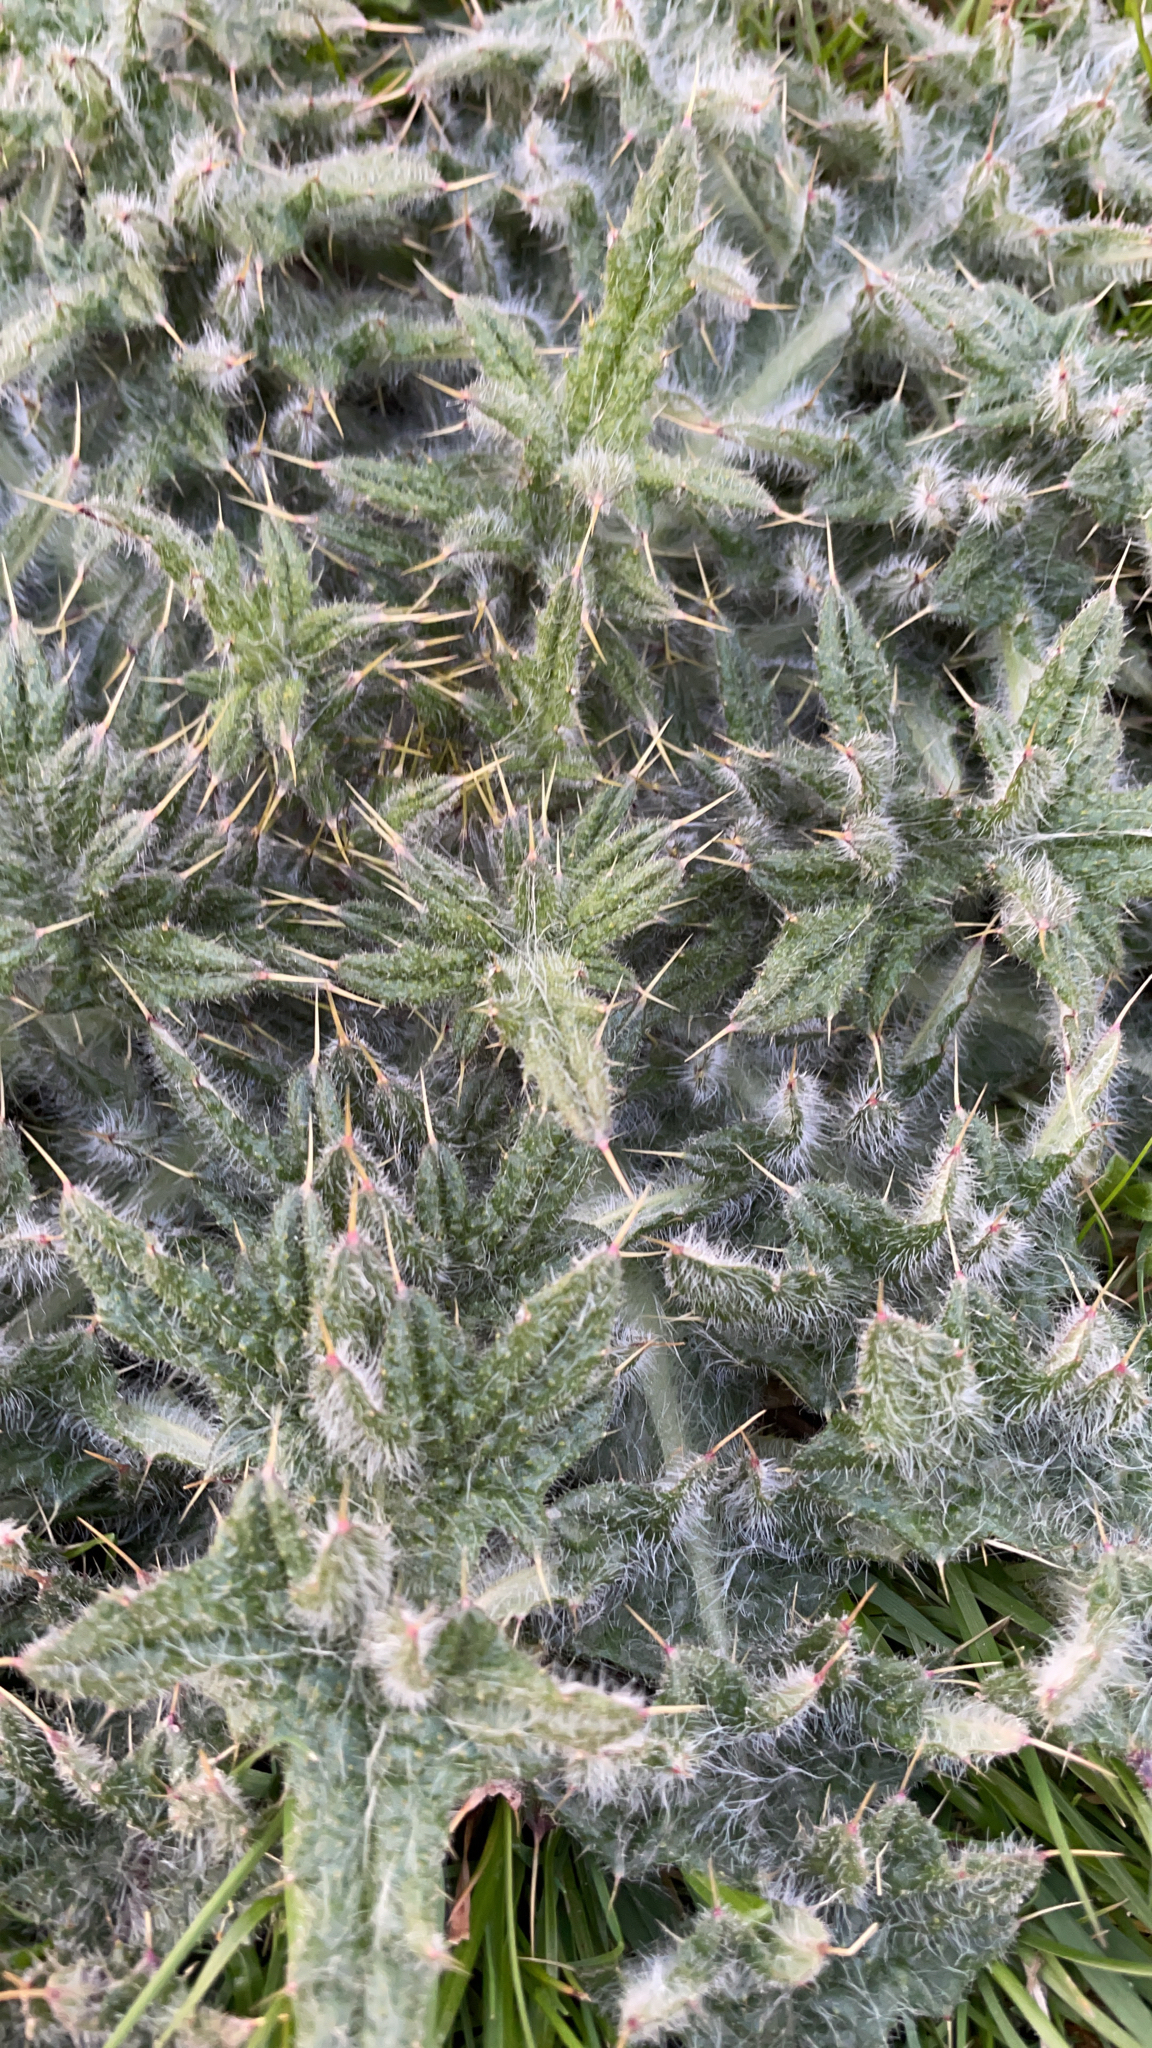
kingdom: Plantae
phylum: Tracheophyta
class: Magnoliopsida
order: Asterales
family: Asteraceae
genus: Cirsium
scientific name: Cirsium vulgare
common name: Bull thistle
